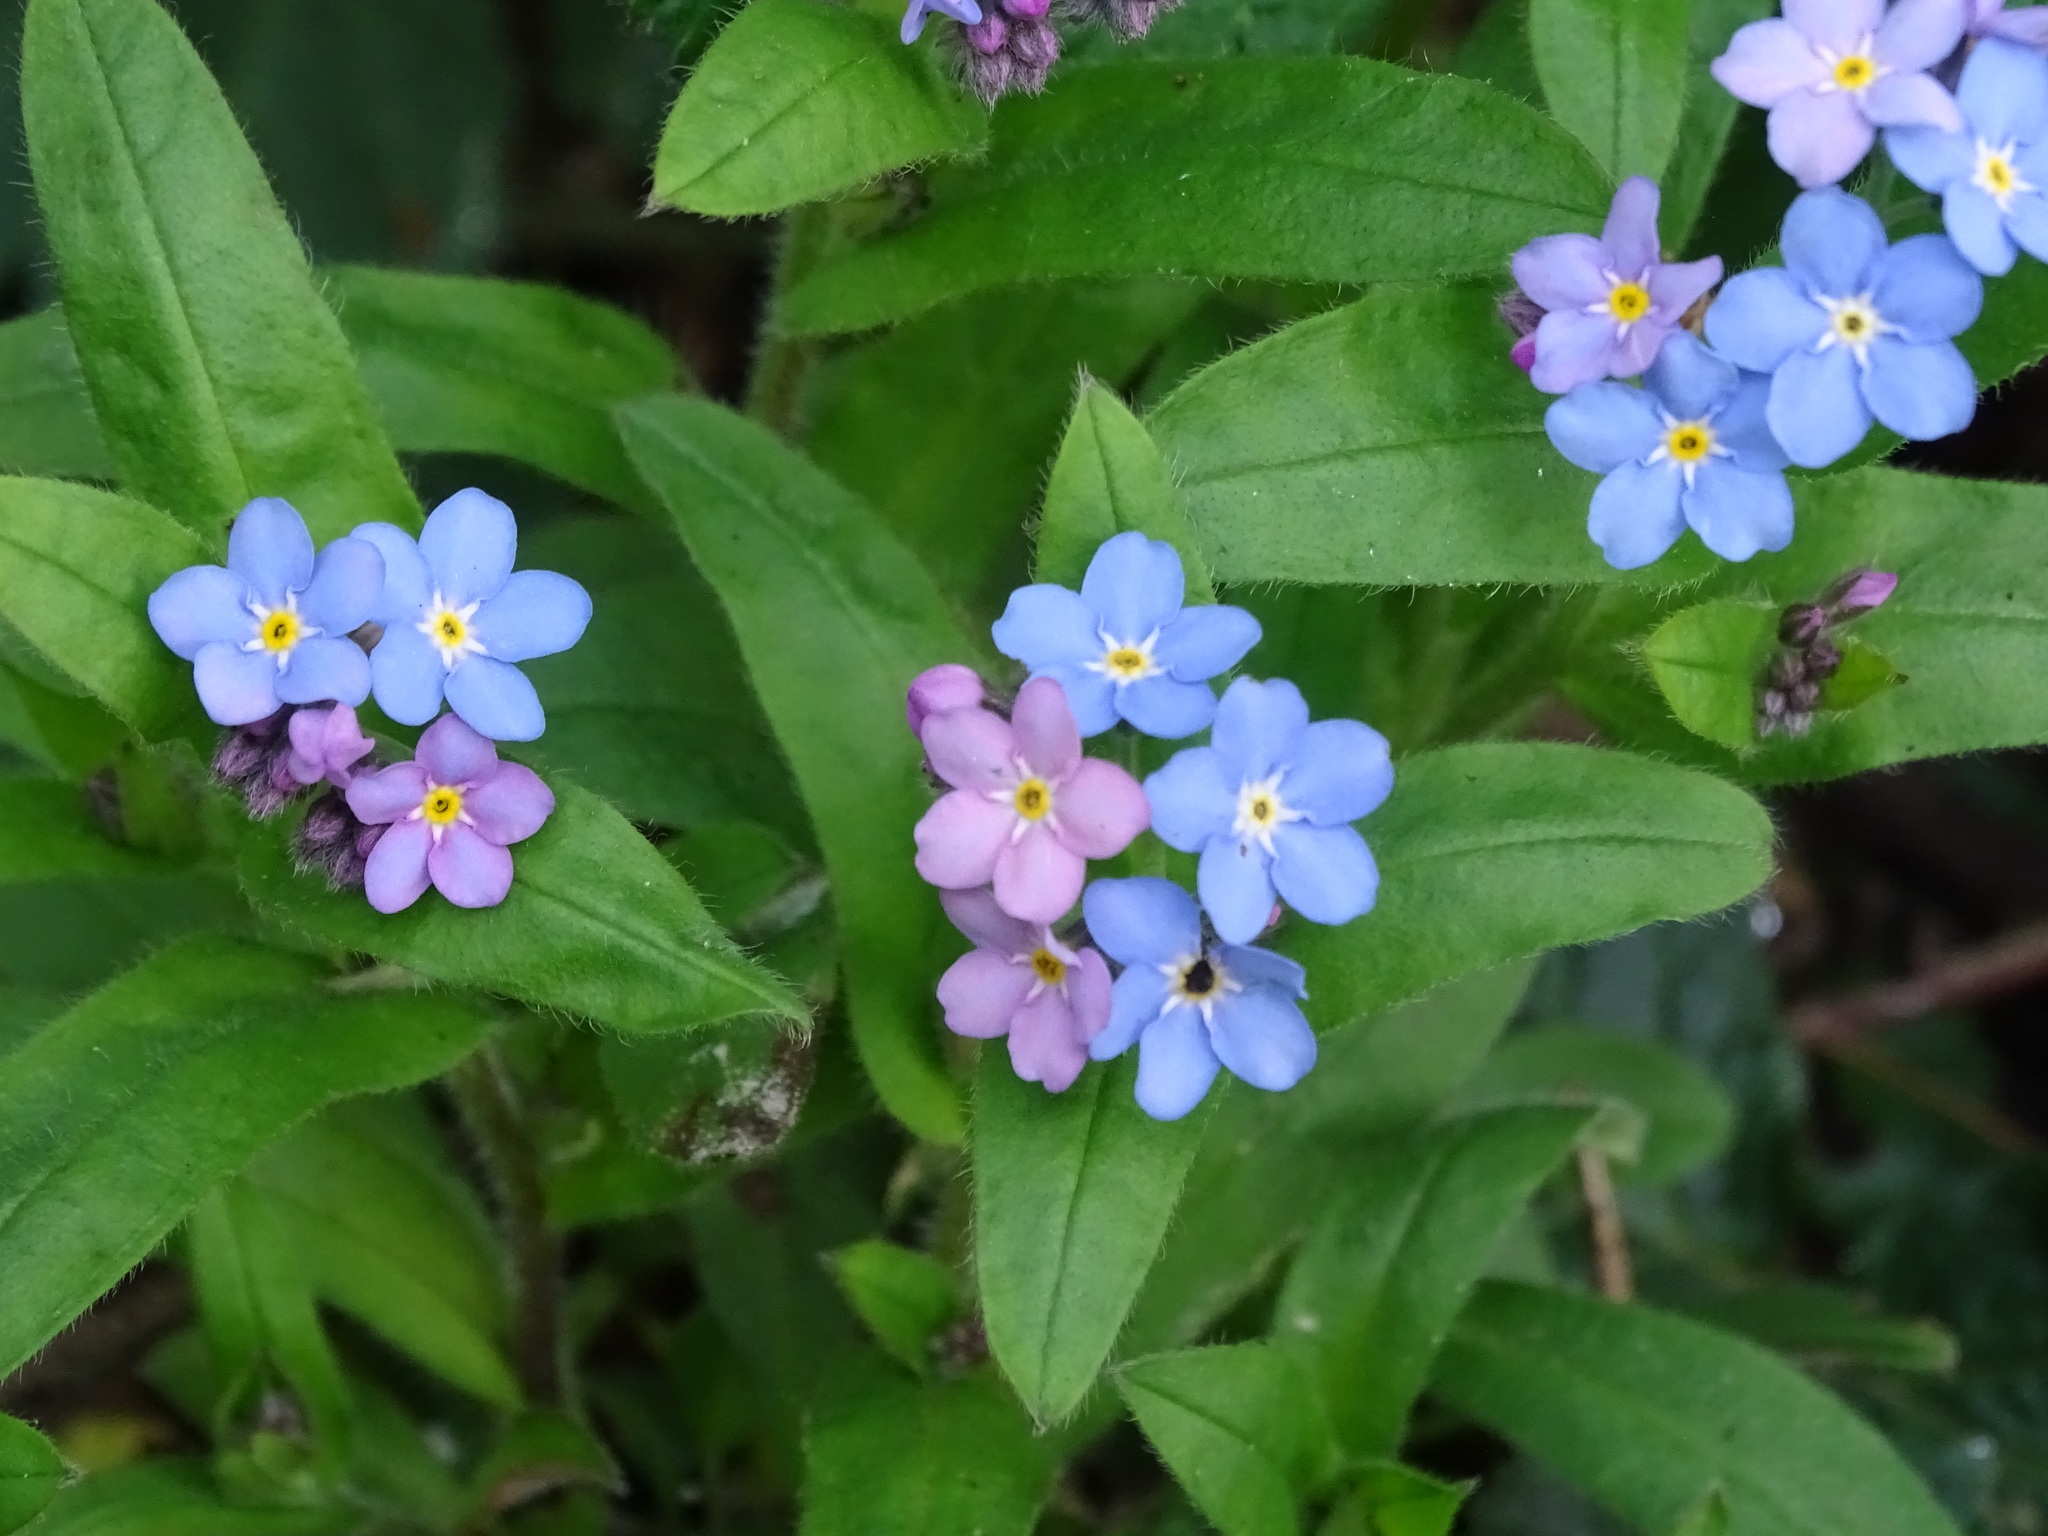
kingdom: Plantae
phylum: Tracheophyta
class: Magnoliopsida
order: Boraginales
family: Boraginaceae
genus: Myosotis
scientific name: Myosotis sylvatica
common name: Wood forget-me-not
